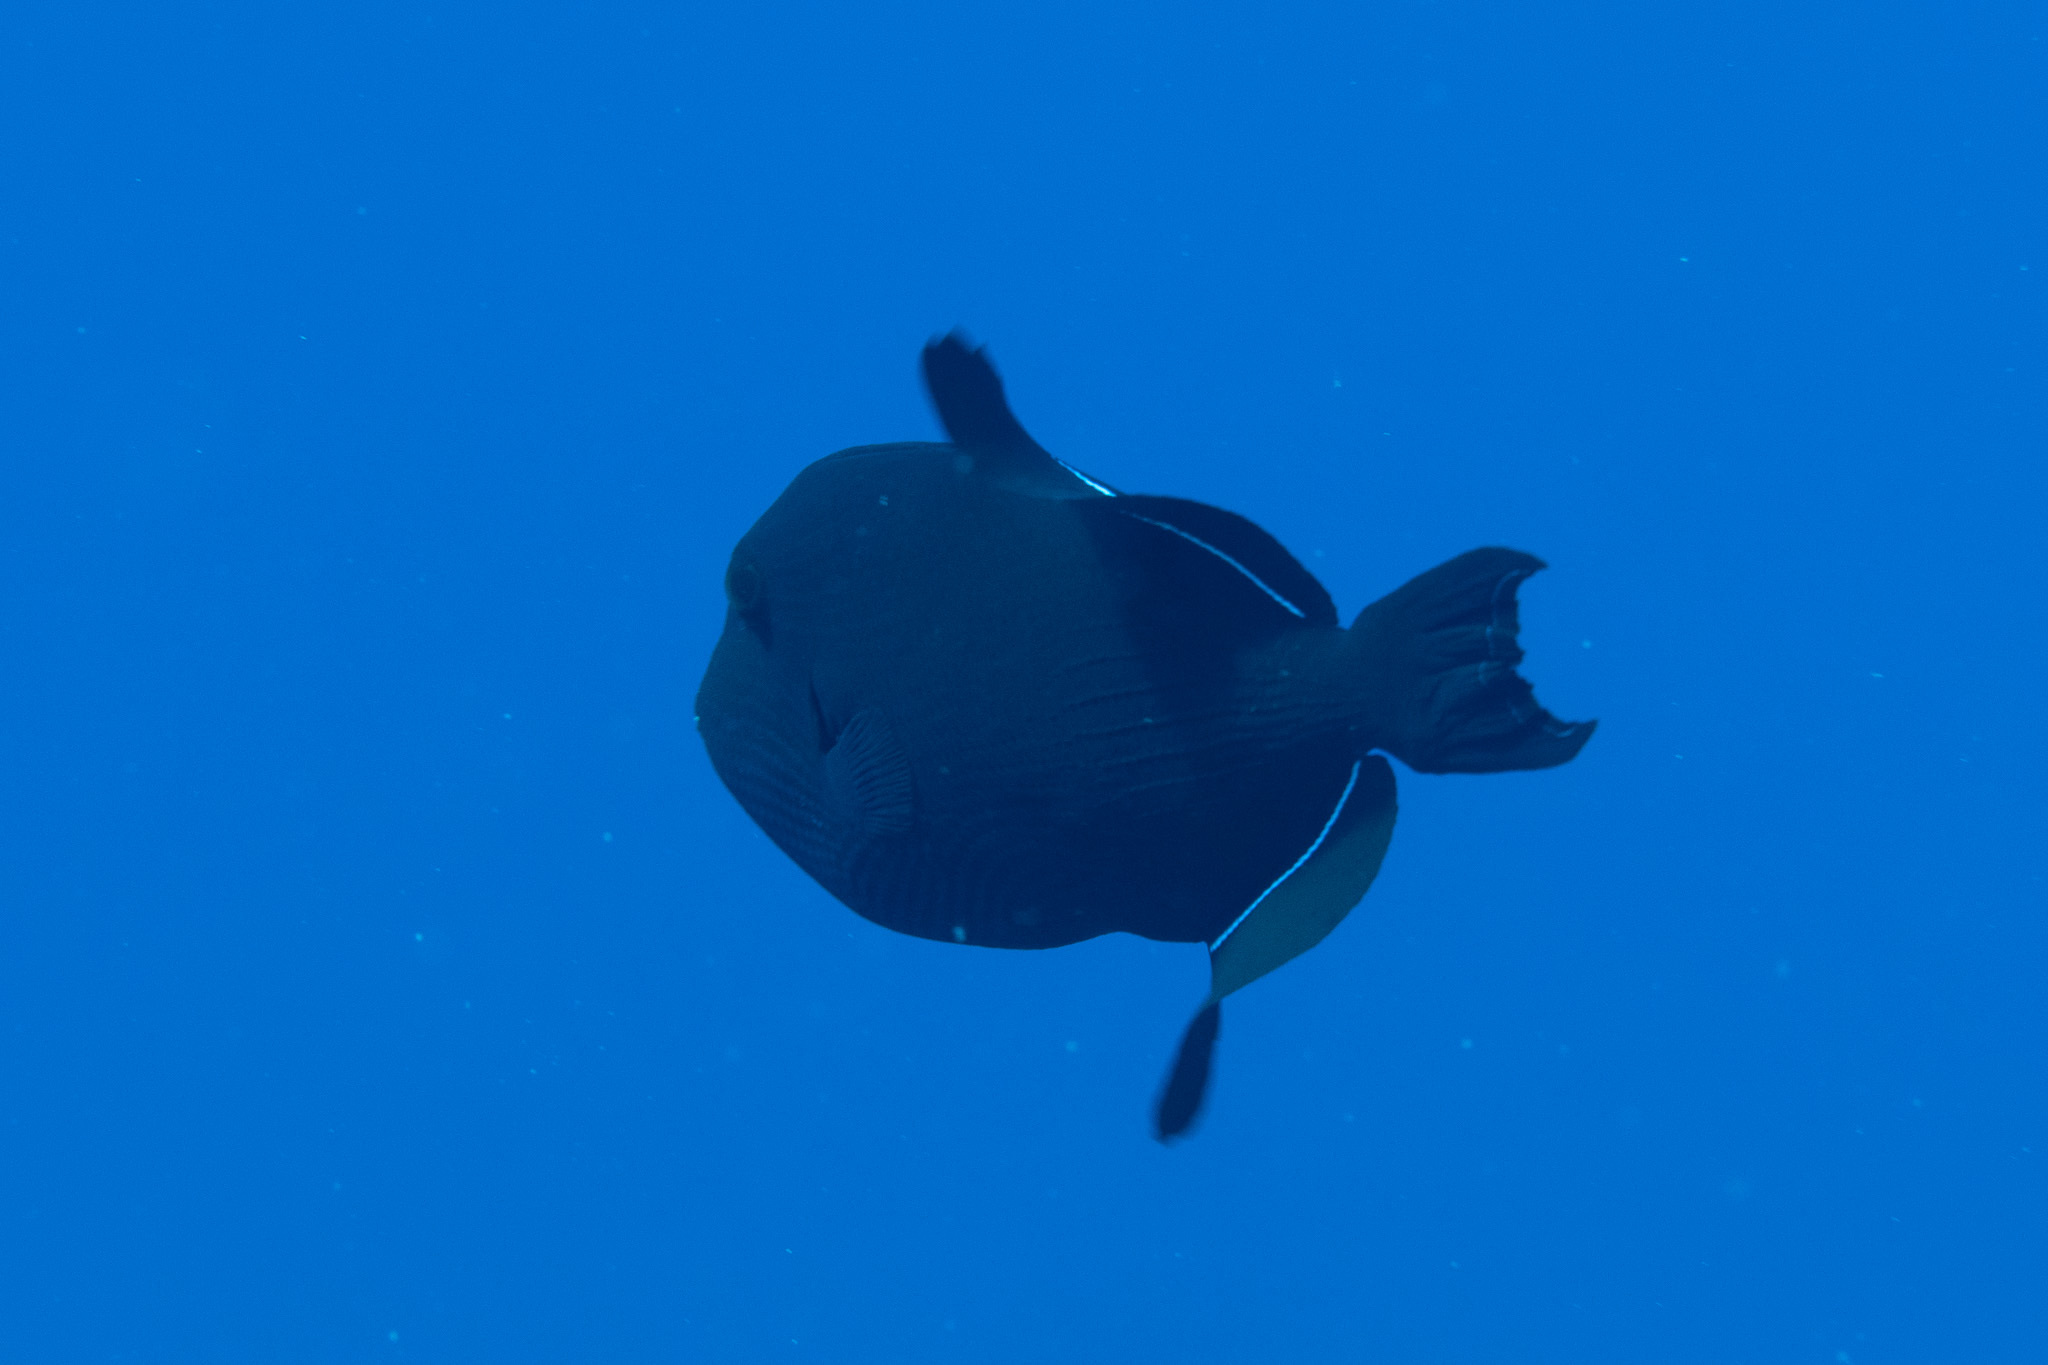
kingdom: Animalia
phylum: Chordata
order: Tetraodontiformes
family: Balistidae
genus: Melichthys
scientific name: Melichthys niger
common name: Black durgon
